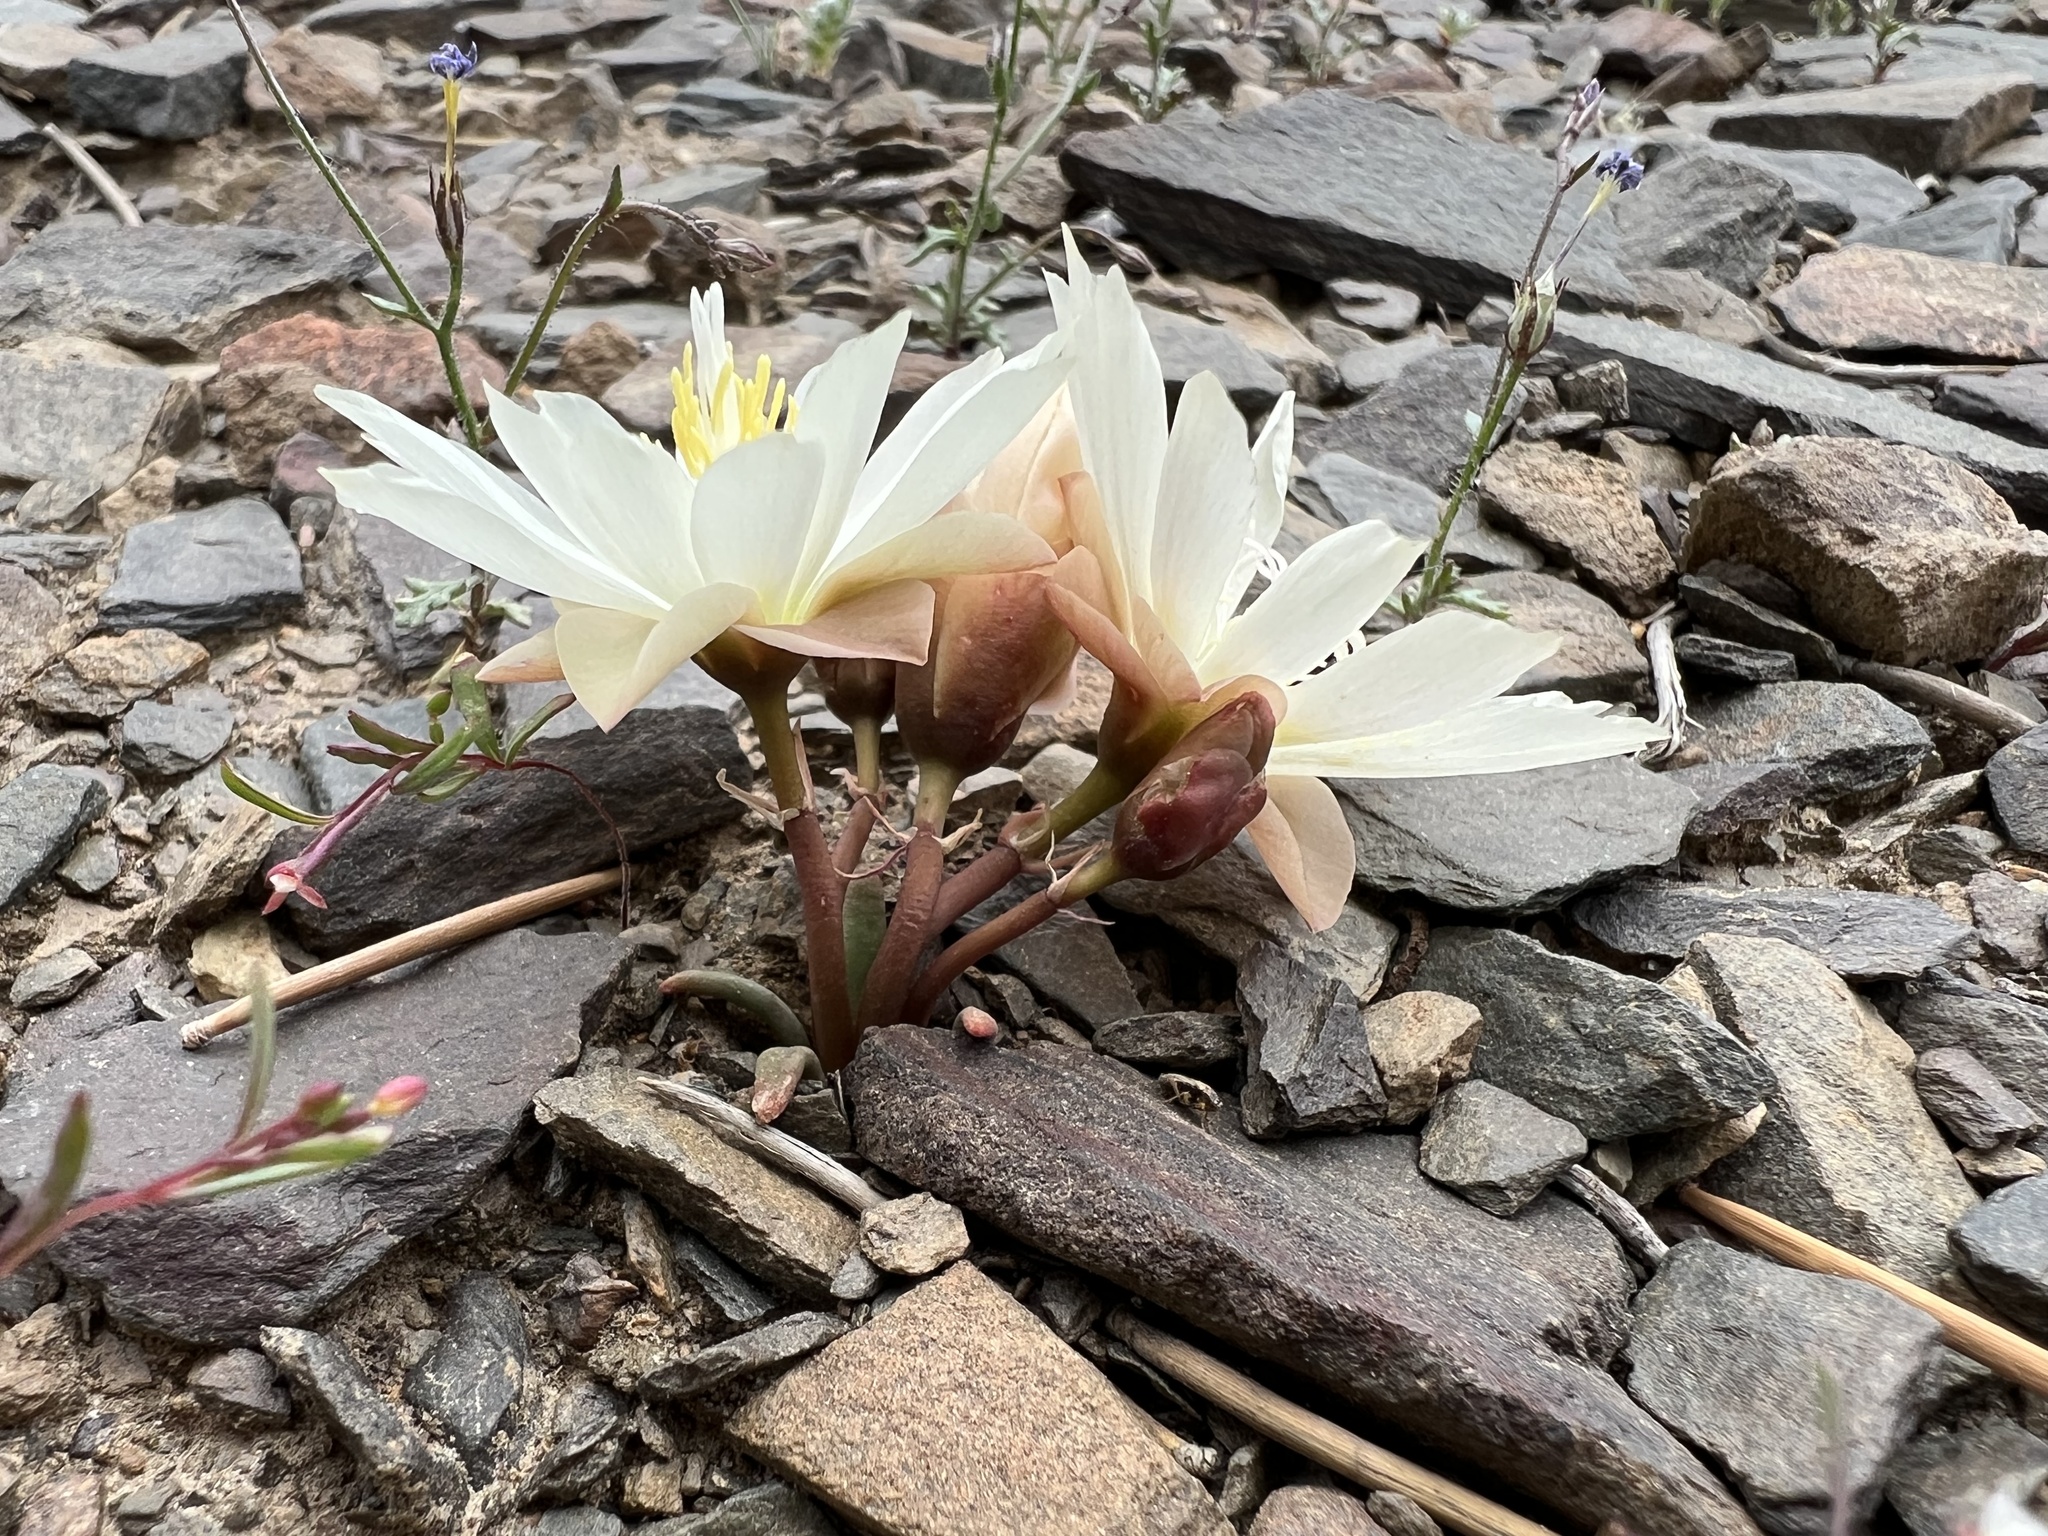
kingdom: Plantae
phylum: Tracheophyta
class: Magnoliopsida
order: Caryophyllales
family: Montiaceae
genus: Lewisia
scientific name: Lewisia rediviva
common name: Bitter-root
